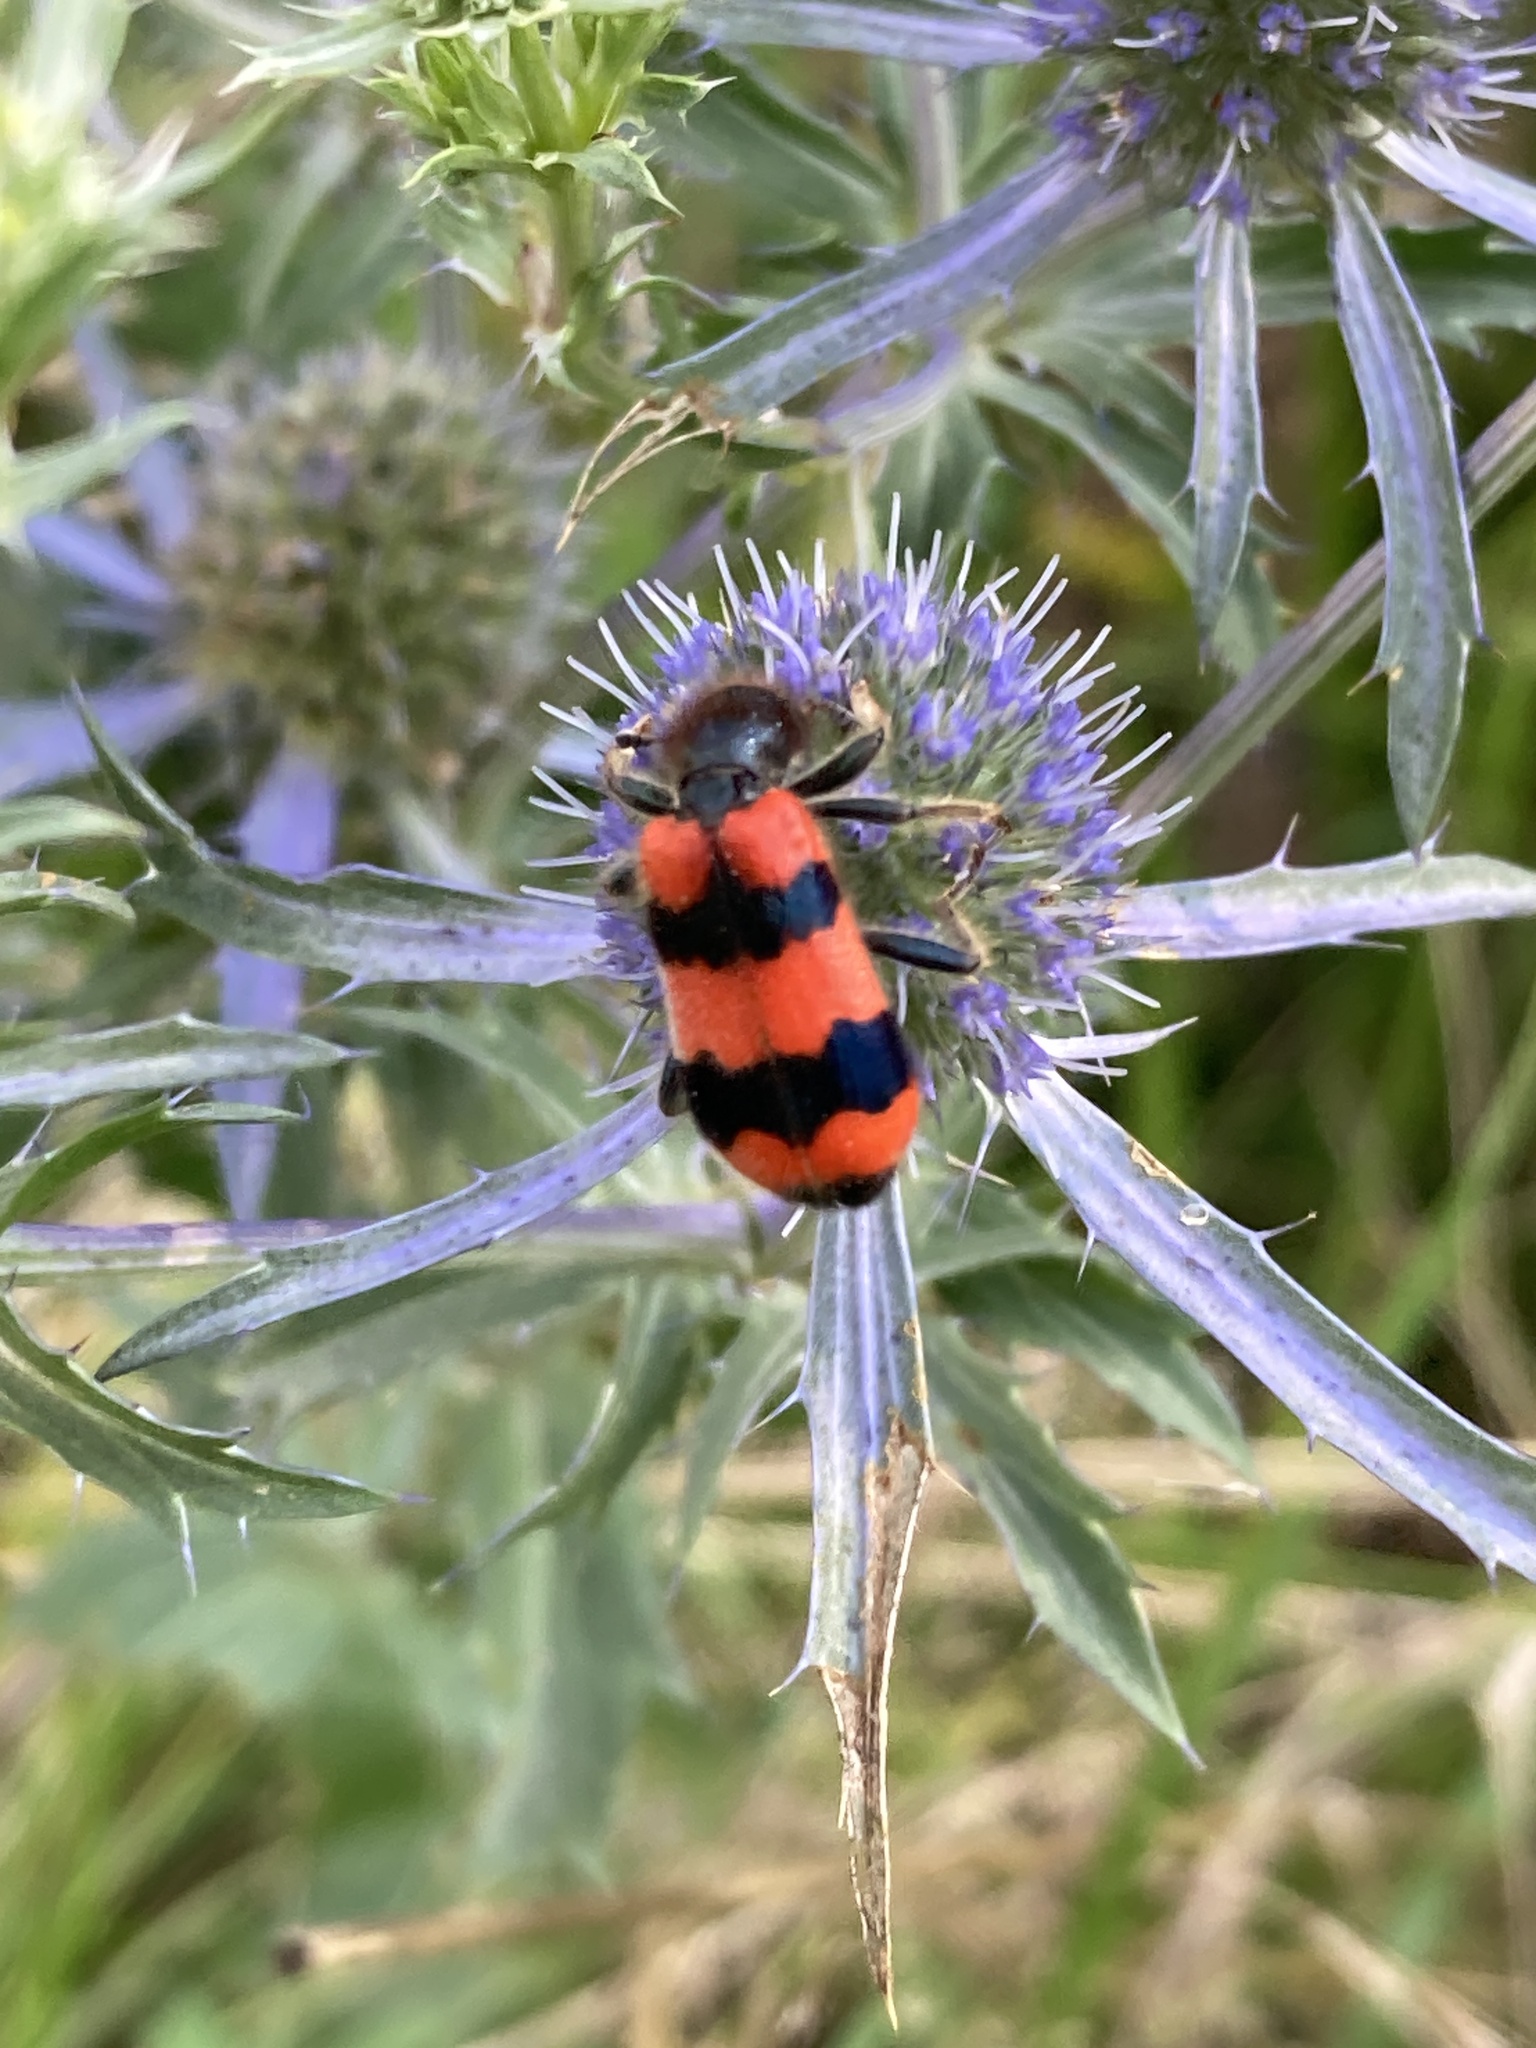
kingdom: Animalia
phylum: Arthropoda
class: Insecta
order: Coleoptera
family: Cleridae
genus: Trichodes
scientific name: Trichodes apiarius
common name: Bee-eating beetle
